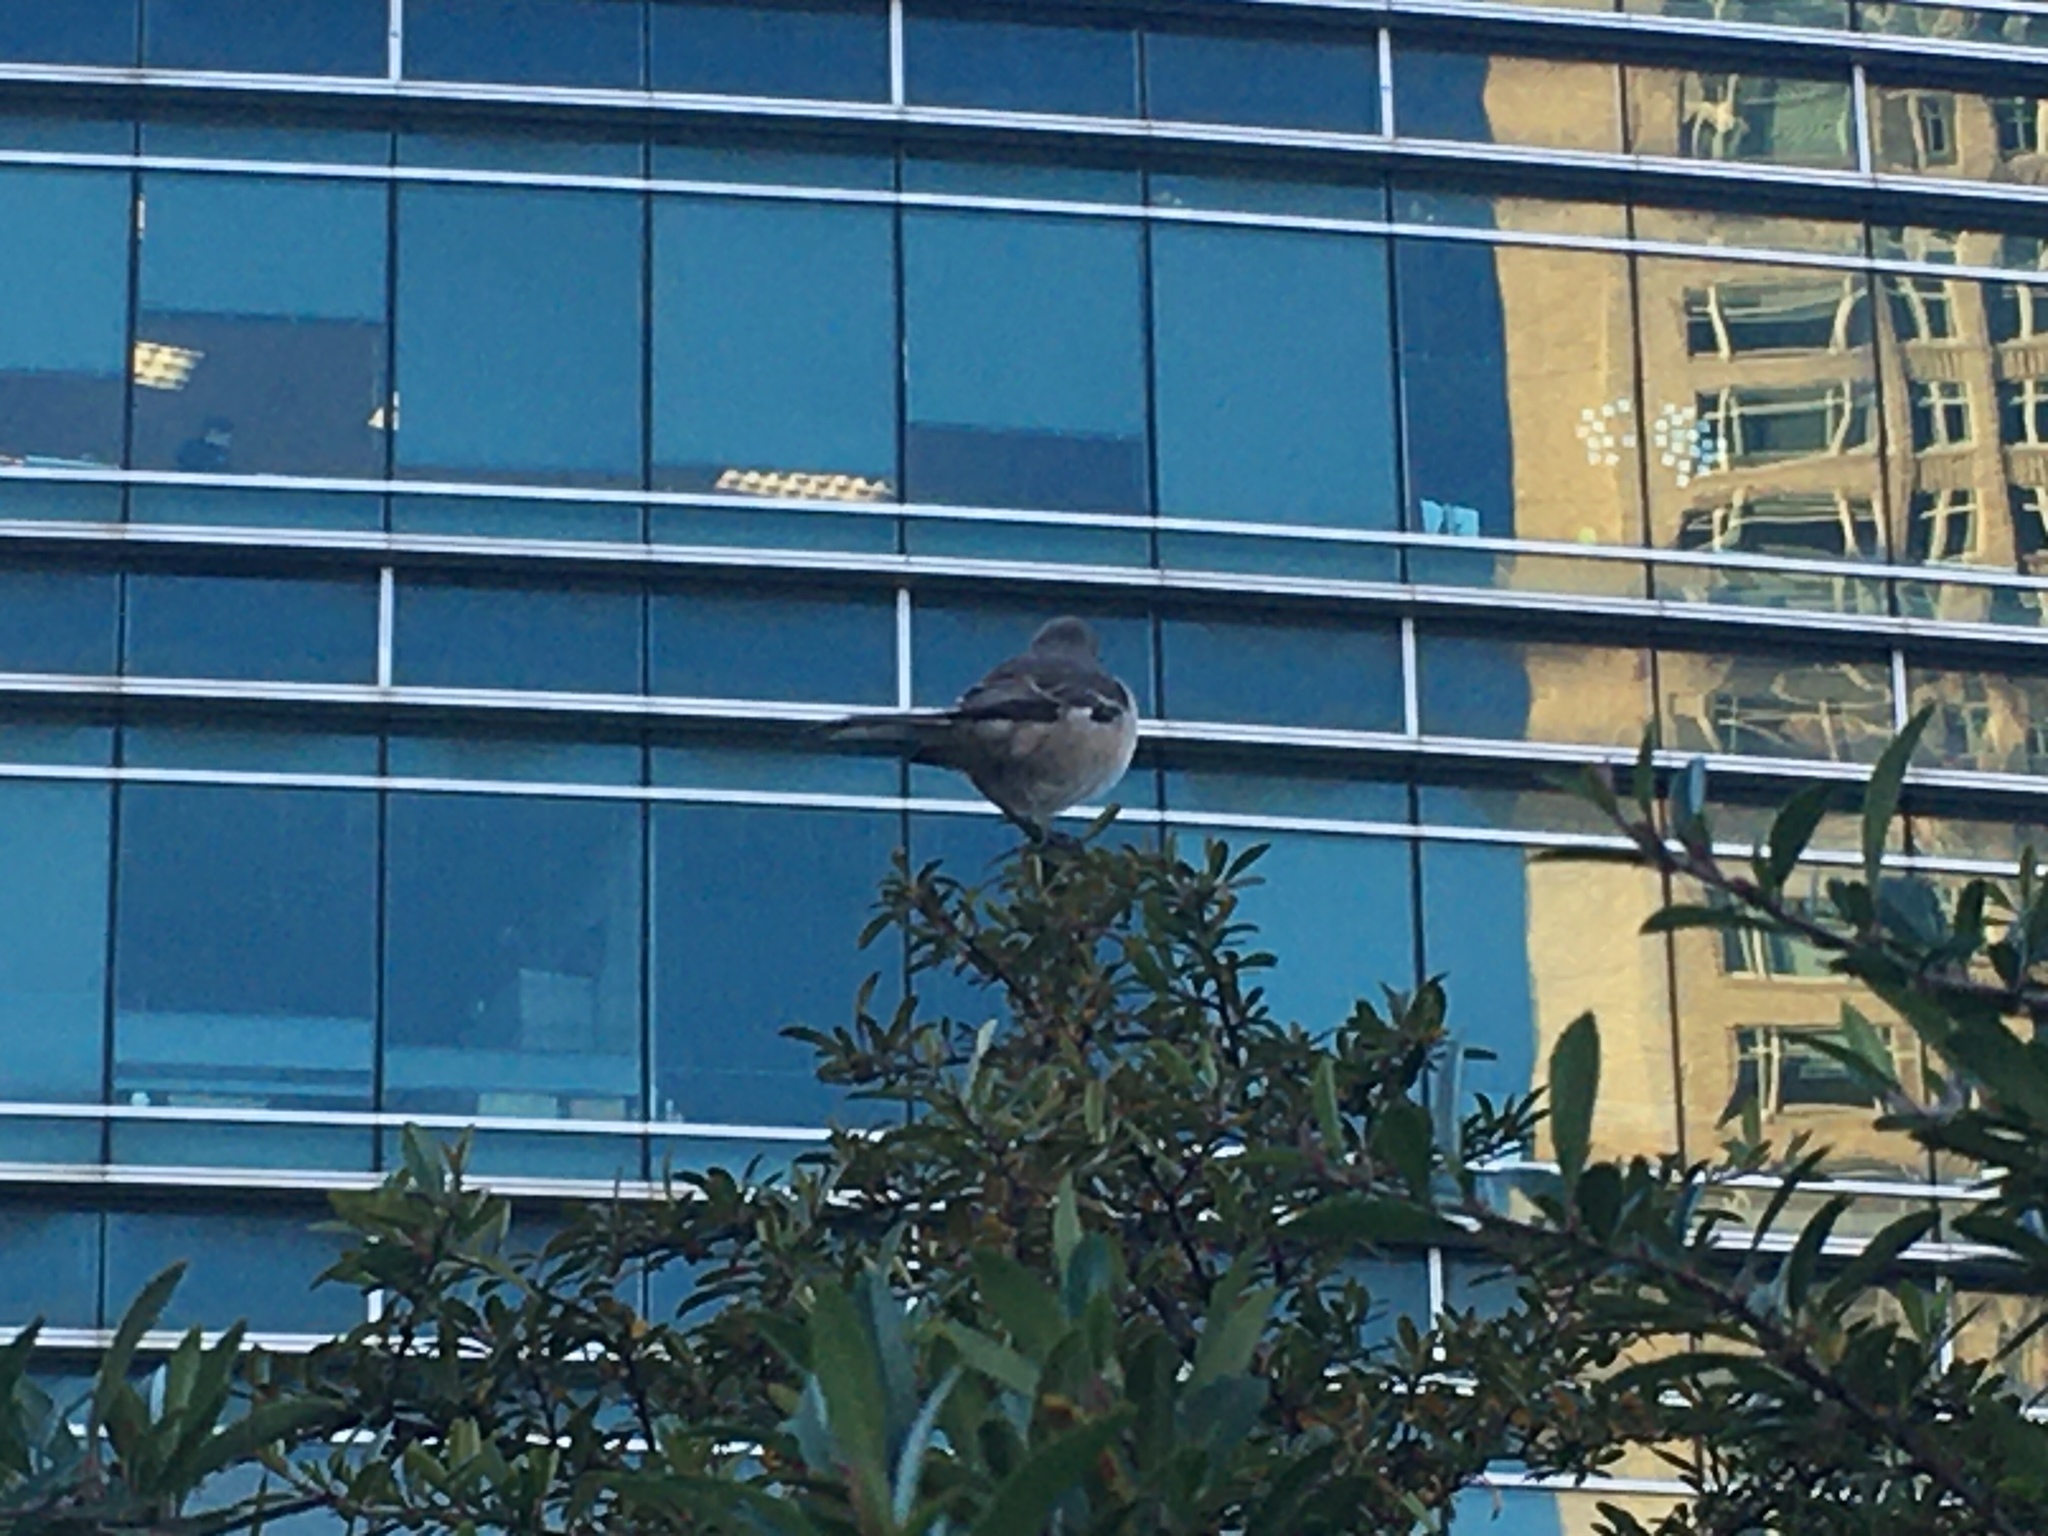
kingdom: Animalia
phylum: Chordata
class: Aves
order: Passeriformes
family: Mimidae
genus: Mimus
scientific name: Mimus polyglottos
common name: Northern mockingbird
